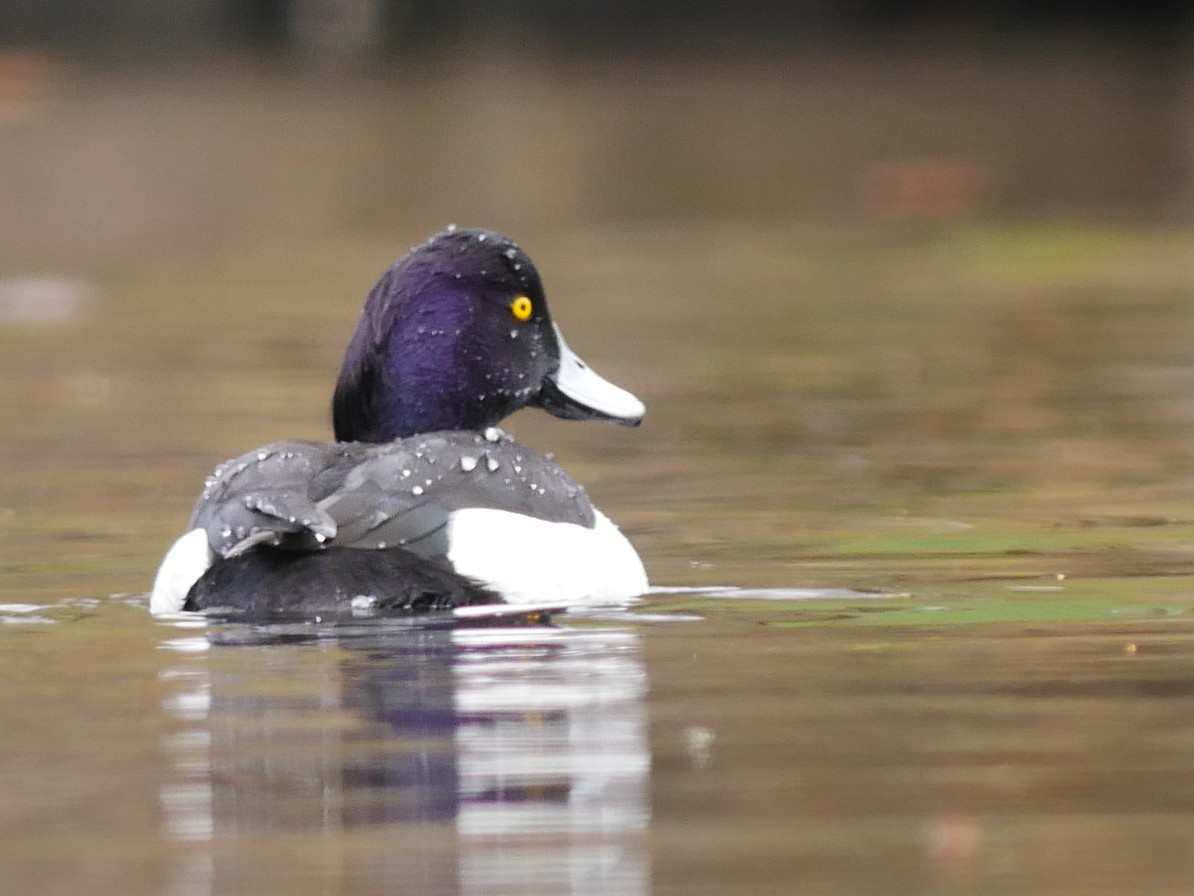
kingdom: Animalia
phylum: Chordata
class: Aves
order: Anseriformes
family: Anatidae
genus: Aythya
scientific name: Aythya fuligula
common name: Tufted duck
